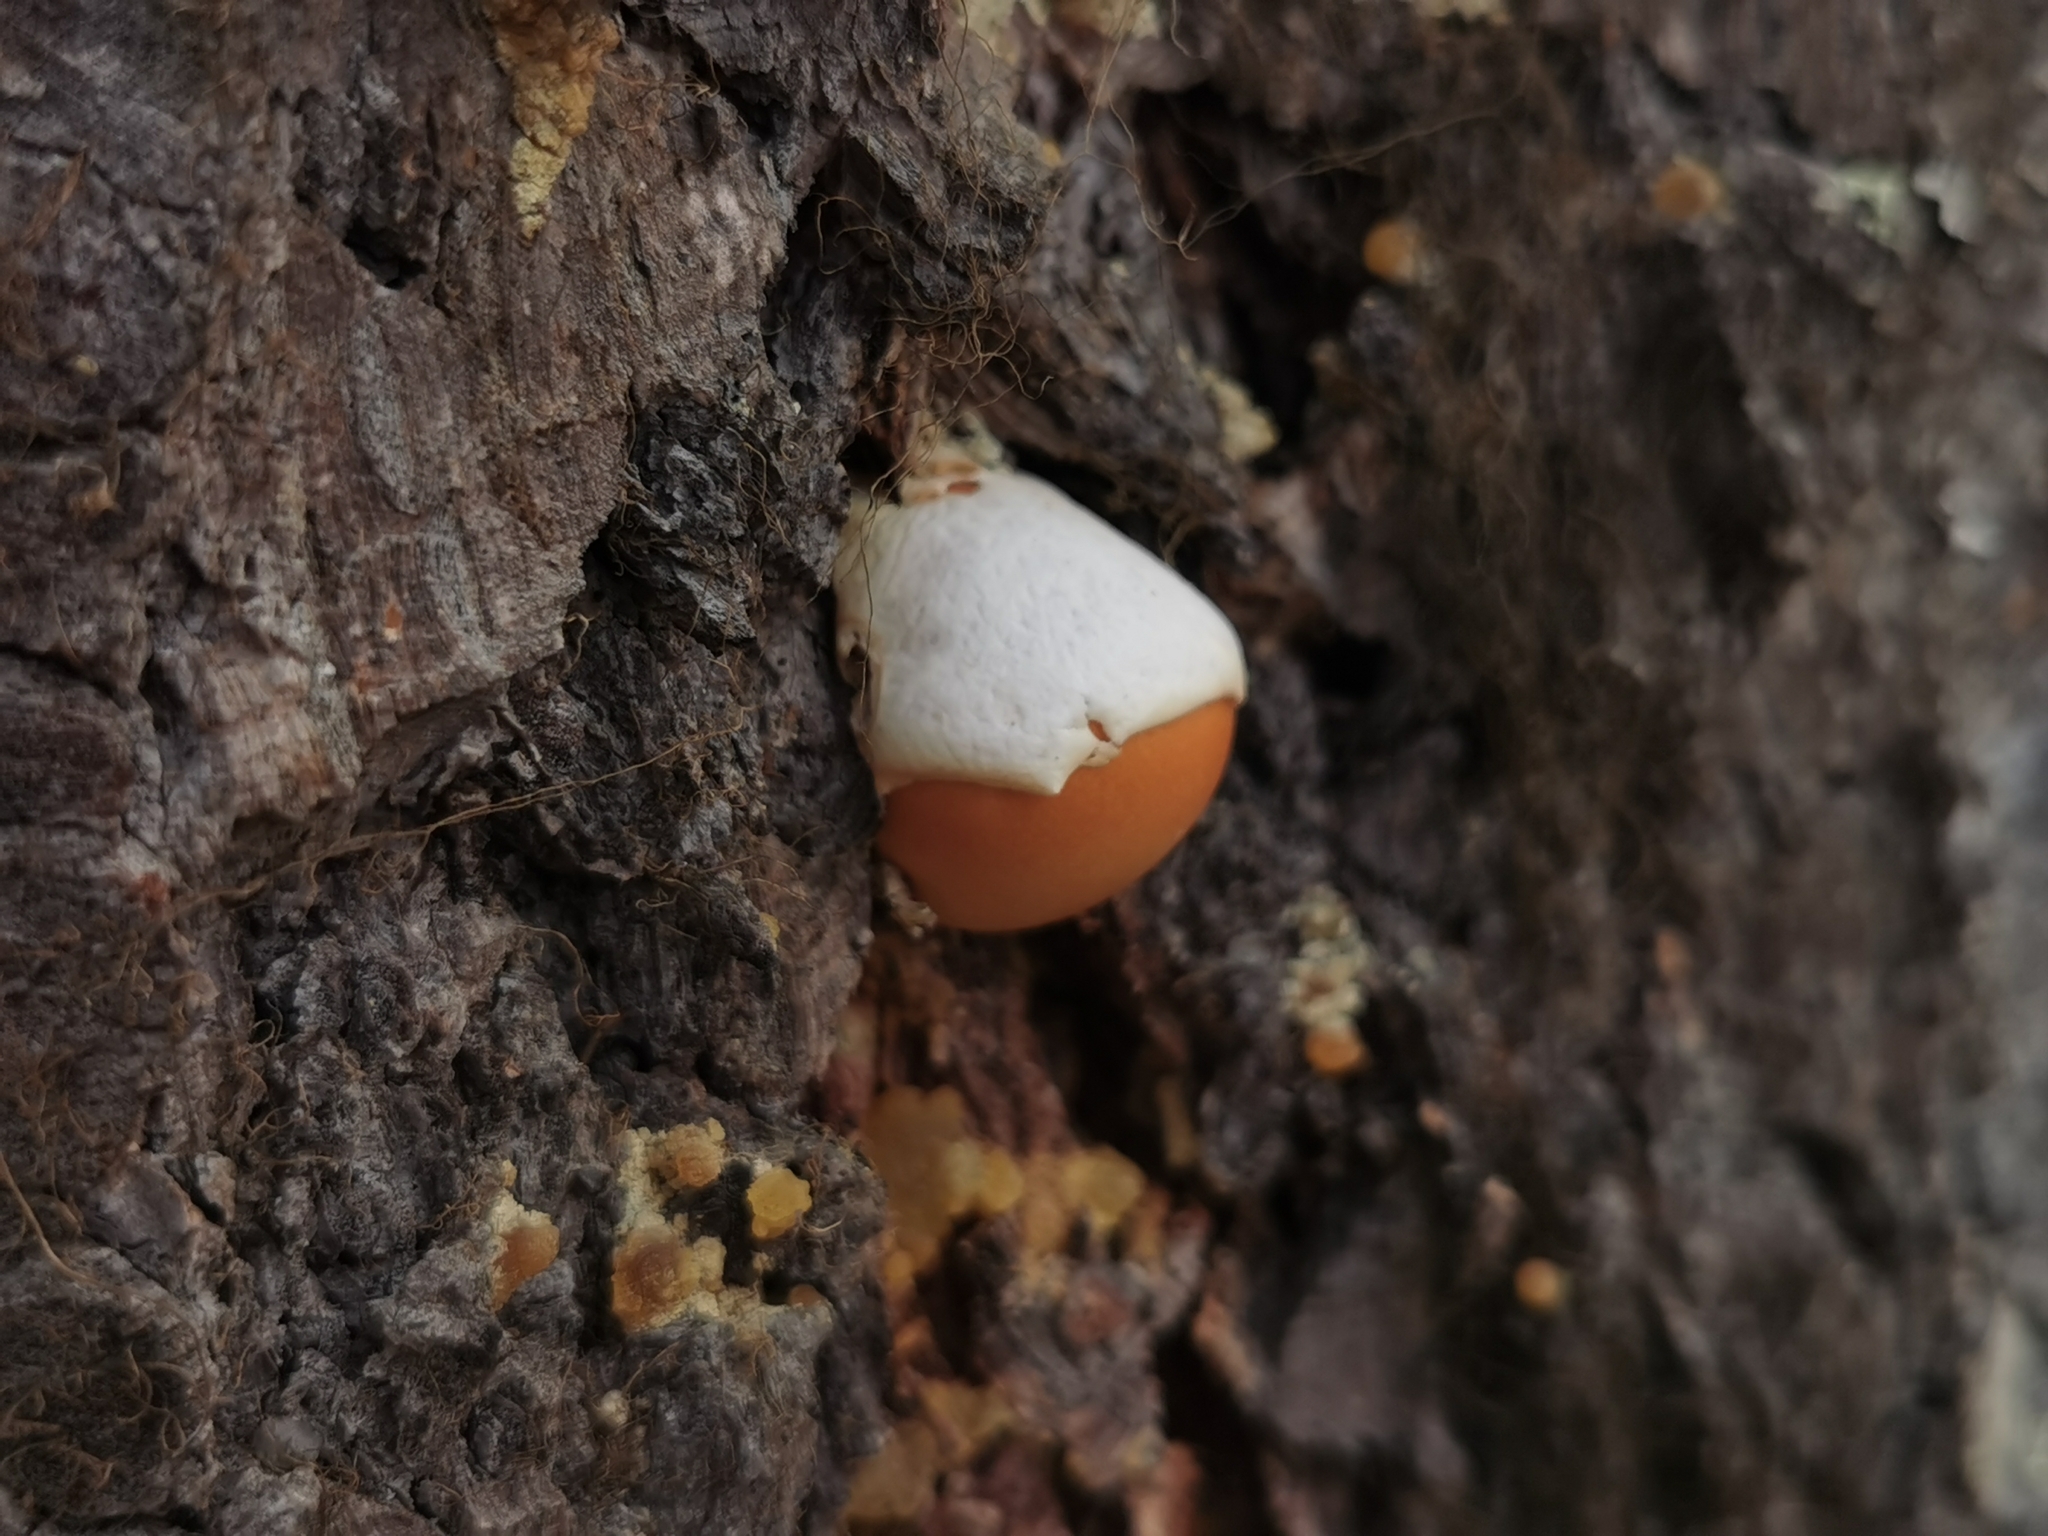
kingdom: Fungi
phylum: Basidiomycota
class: Agaricomycetes
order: Polyporales
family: Polyporaceae
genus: Cryptoporus
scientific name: Cryptoporus volvatus
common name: Veiled polypore
